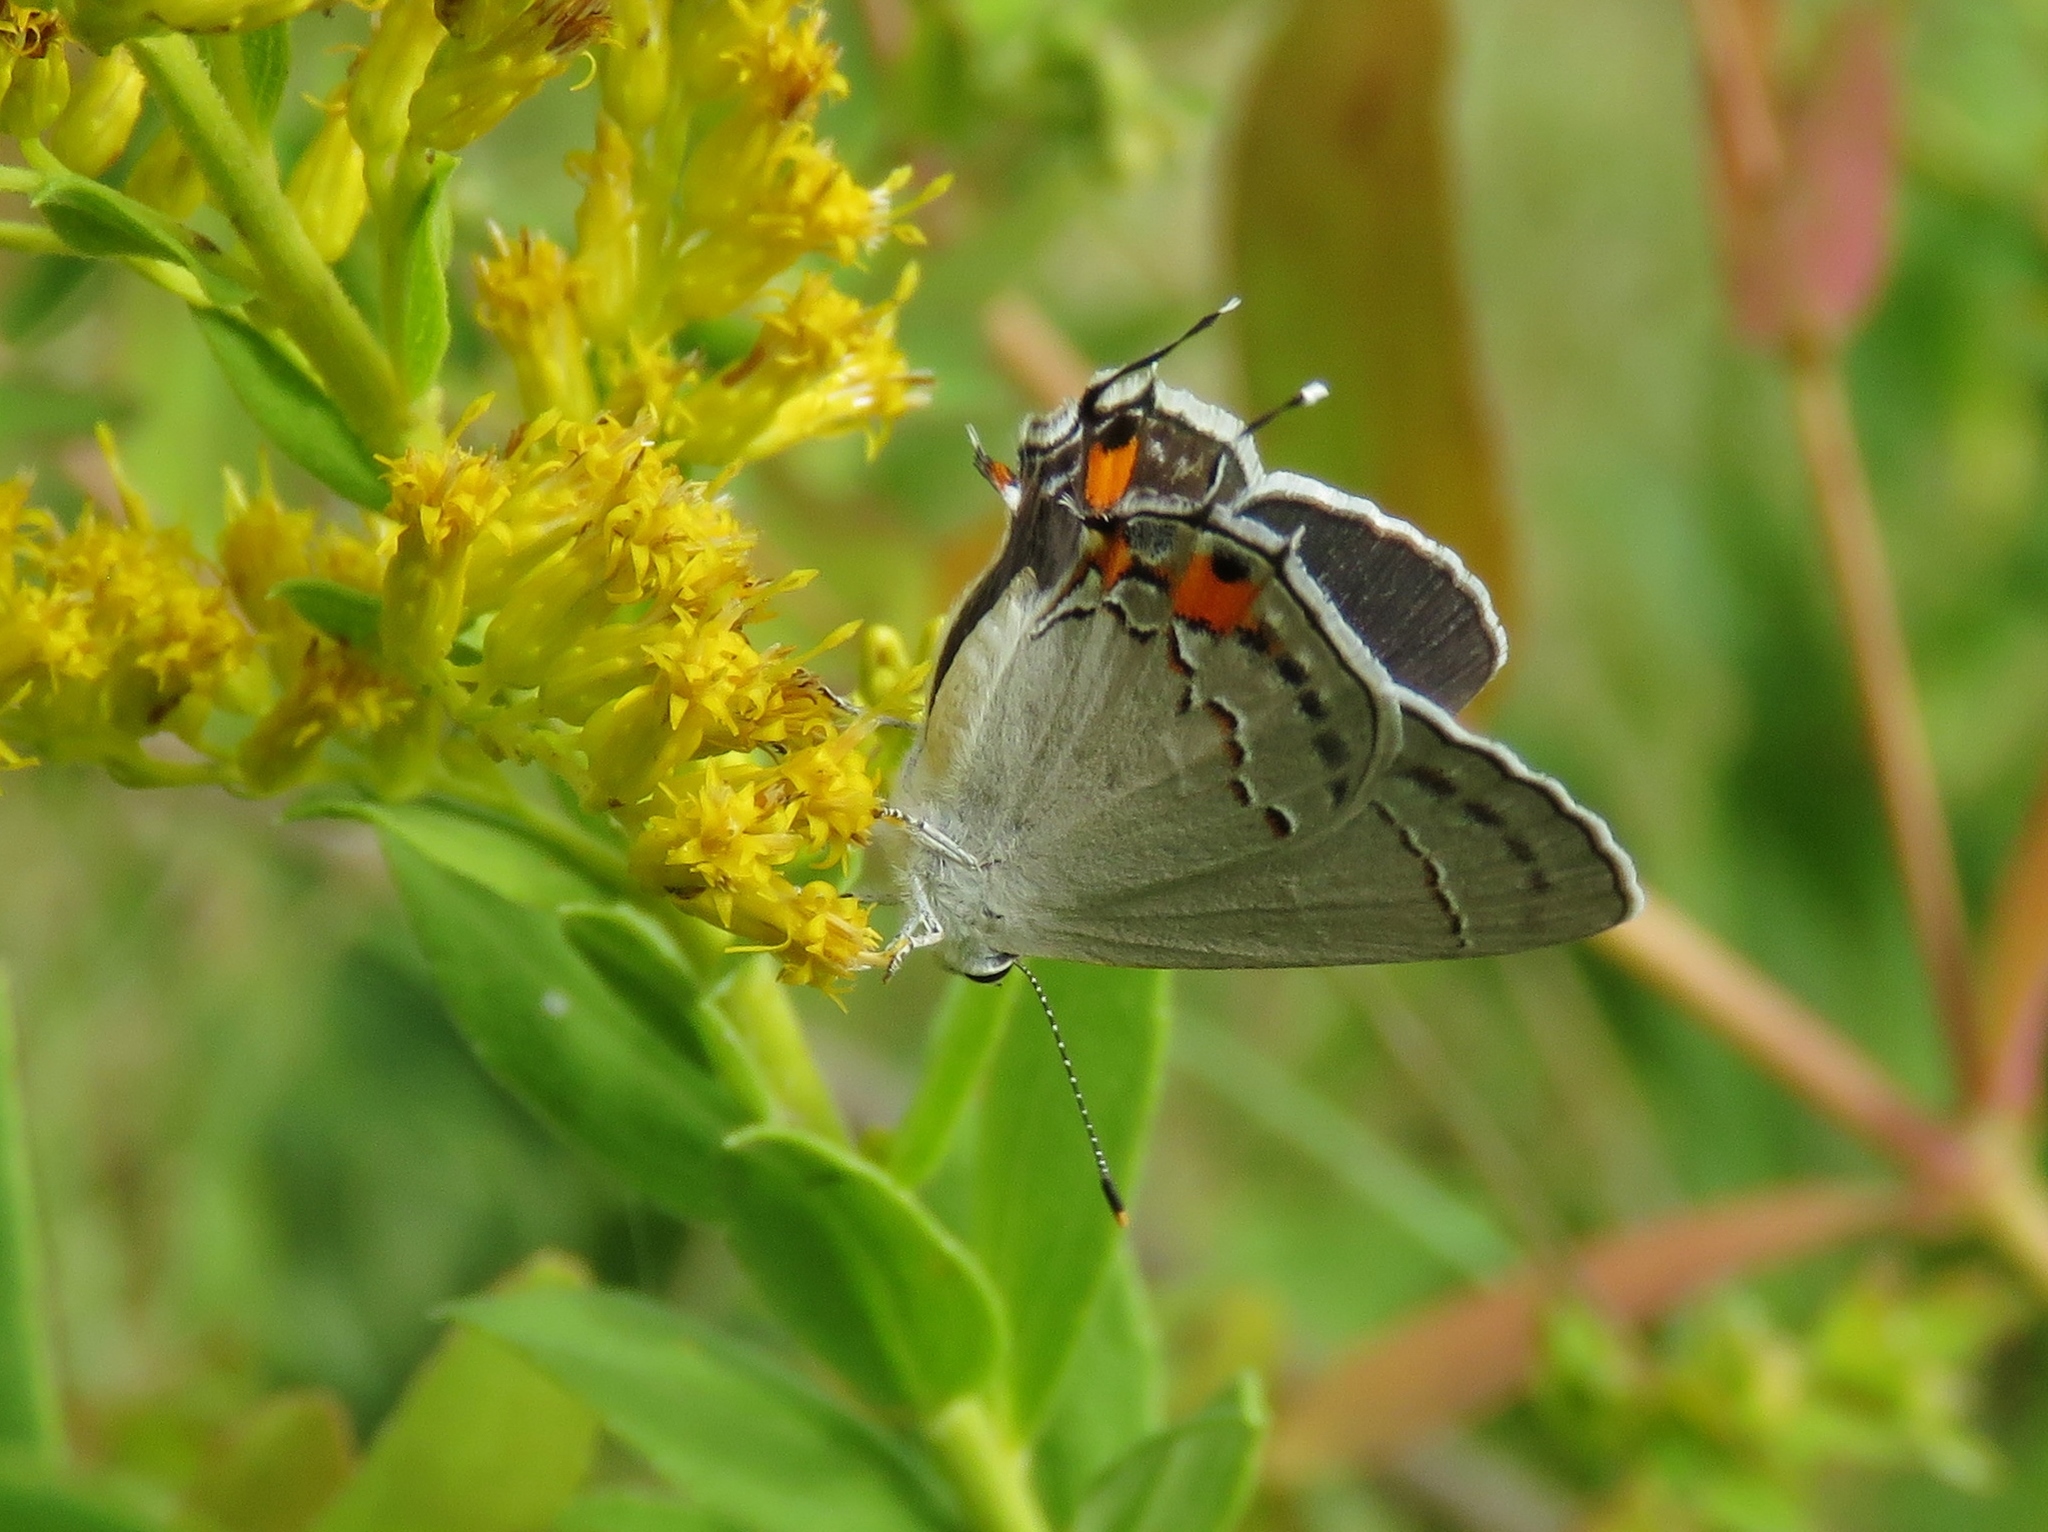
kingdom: Animalia
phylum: Arthropoda
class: Insecta
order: Lepidoptera
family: Lycaenidae
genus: Strymon
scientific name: Strymon melinus
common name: Gray hairstreak
